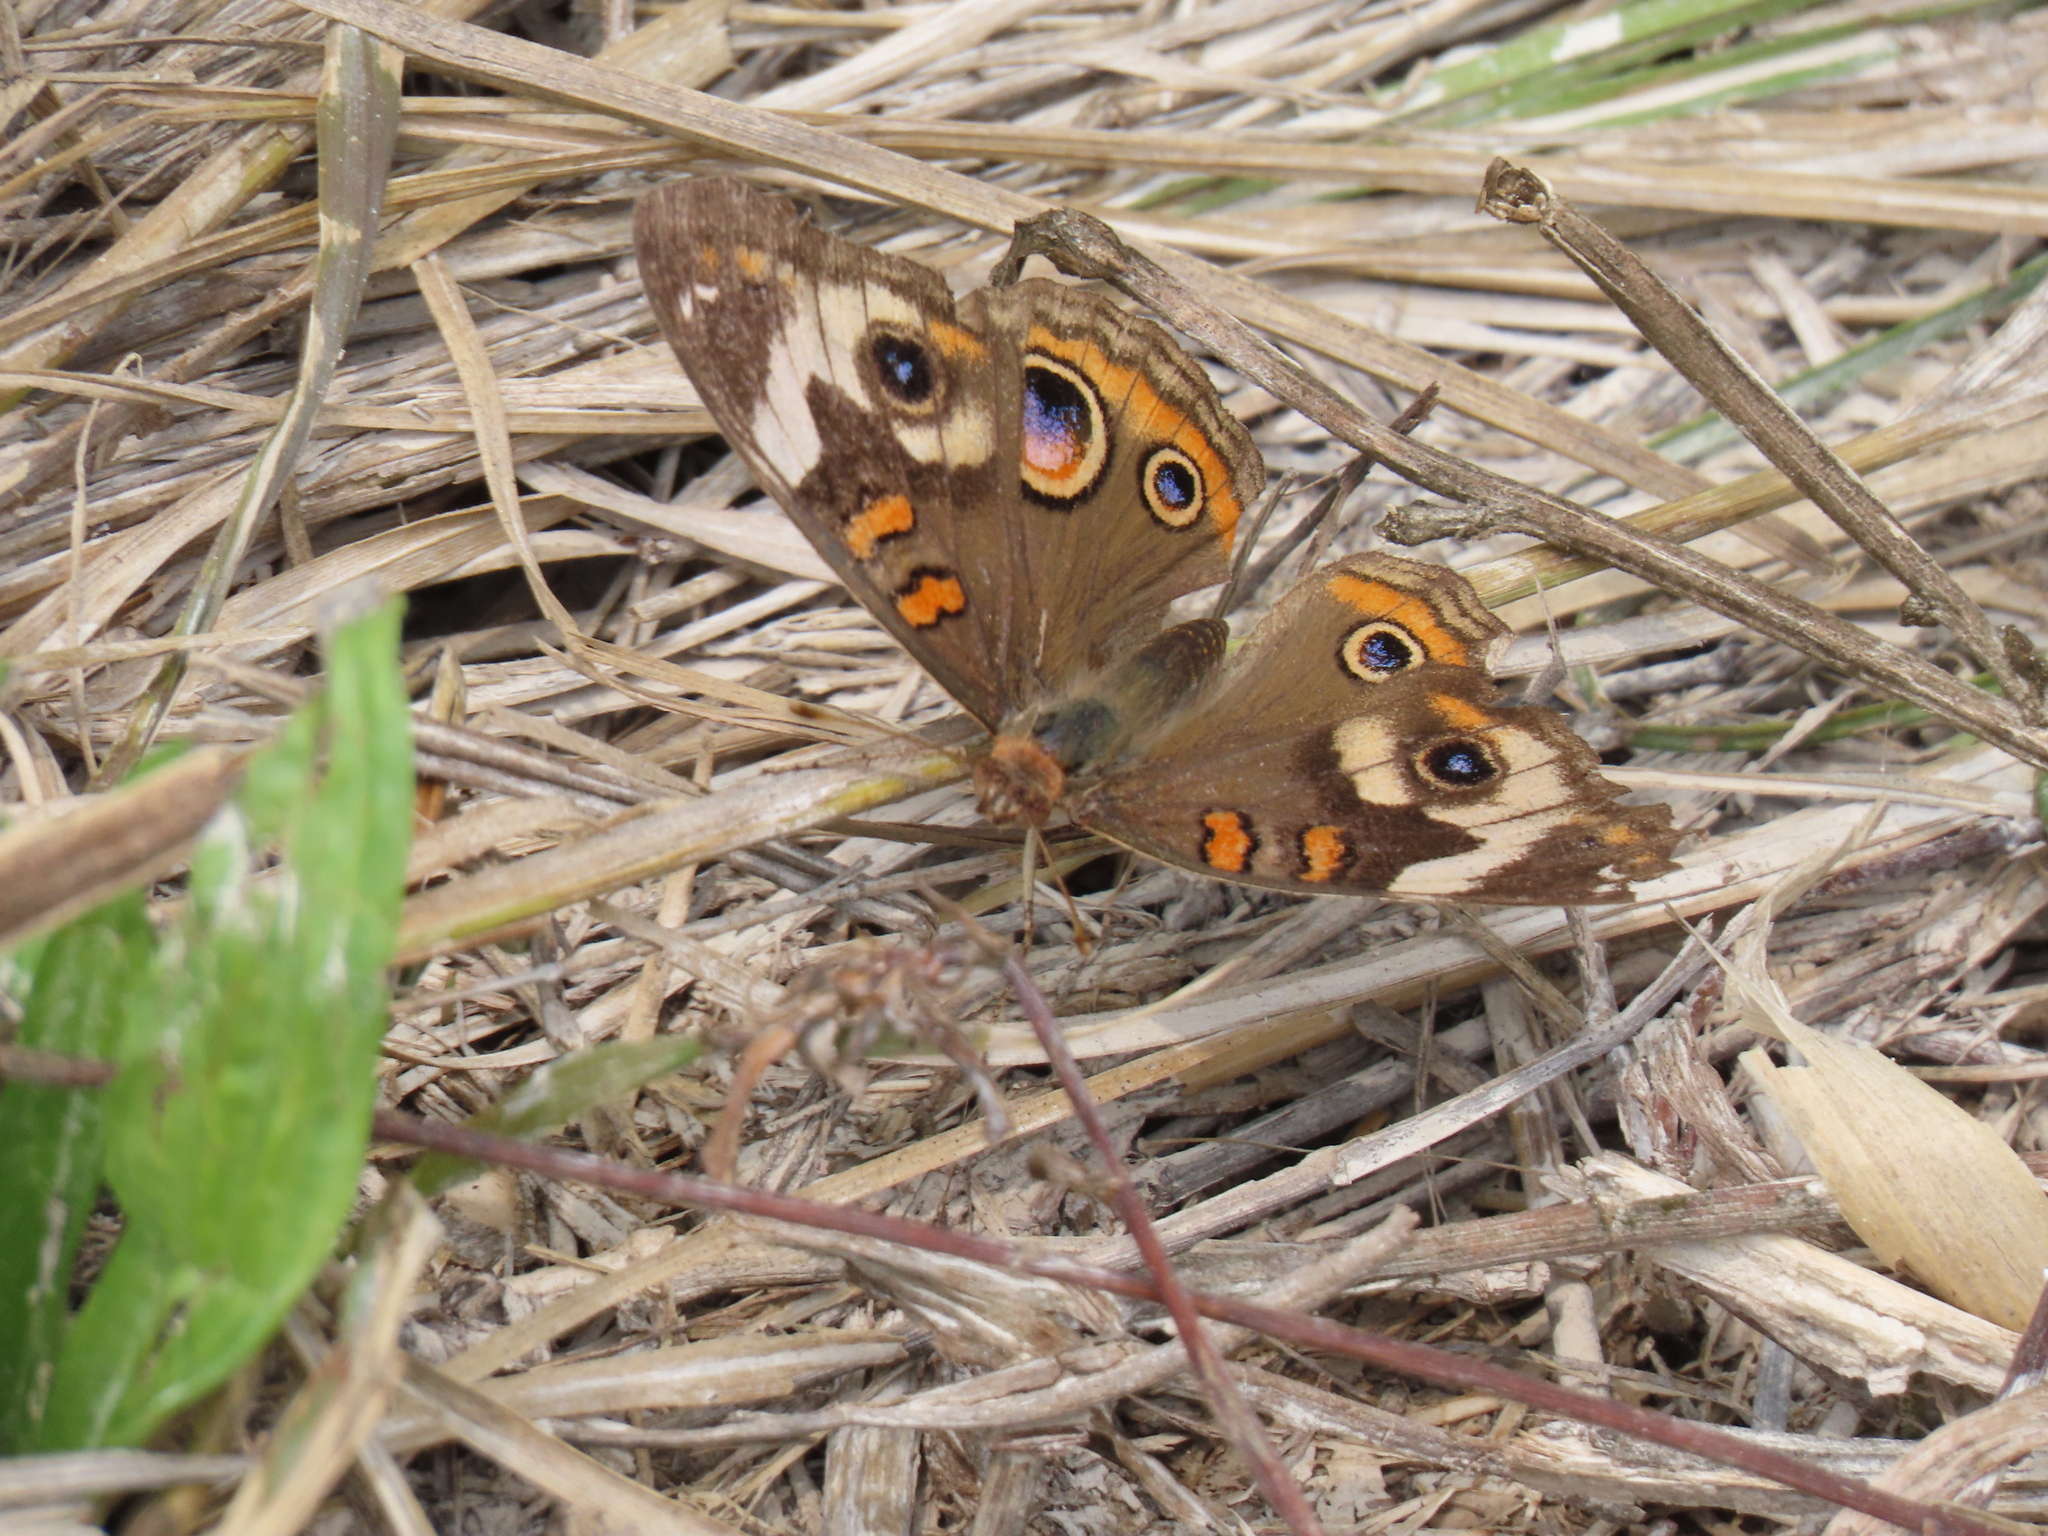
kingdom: Animalia
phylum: Arthropoda
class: Insecta
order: Lepidoptera
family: Nymphalidae
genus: Junonia
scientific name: Junonia coenia
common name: Common buckeye
